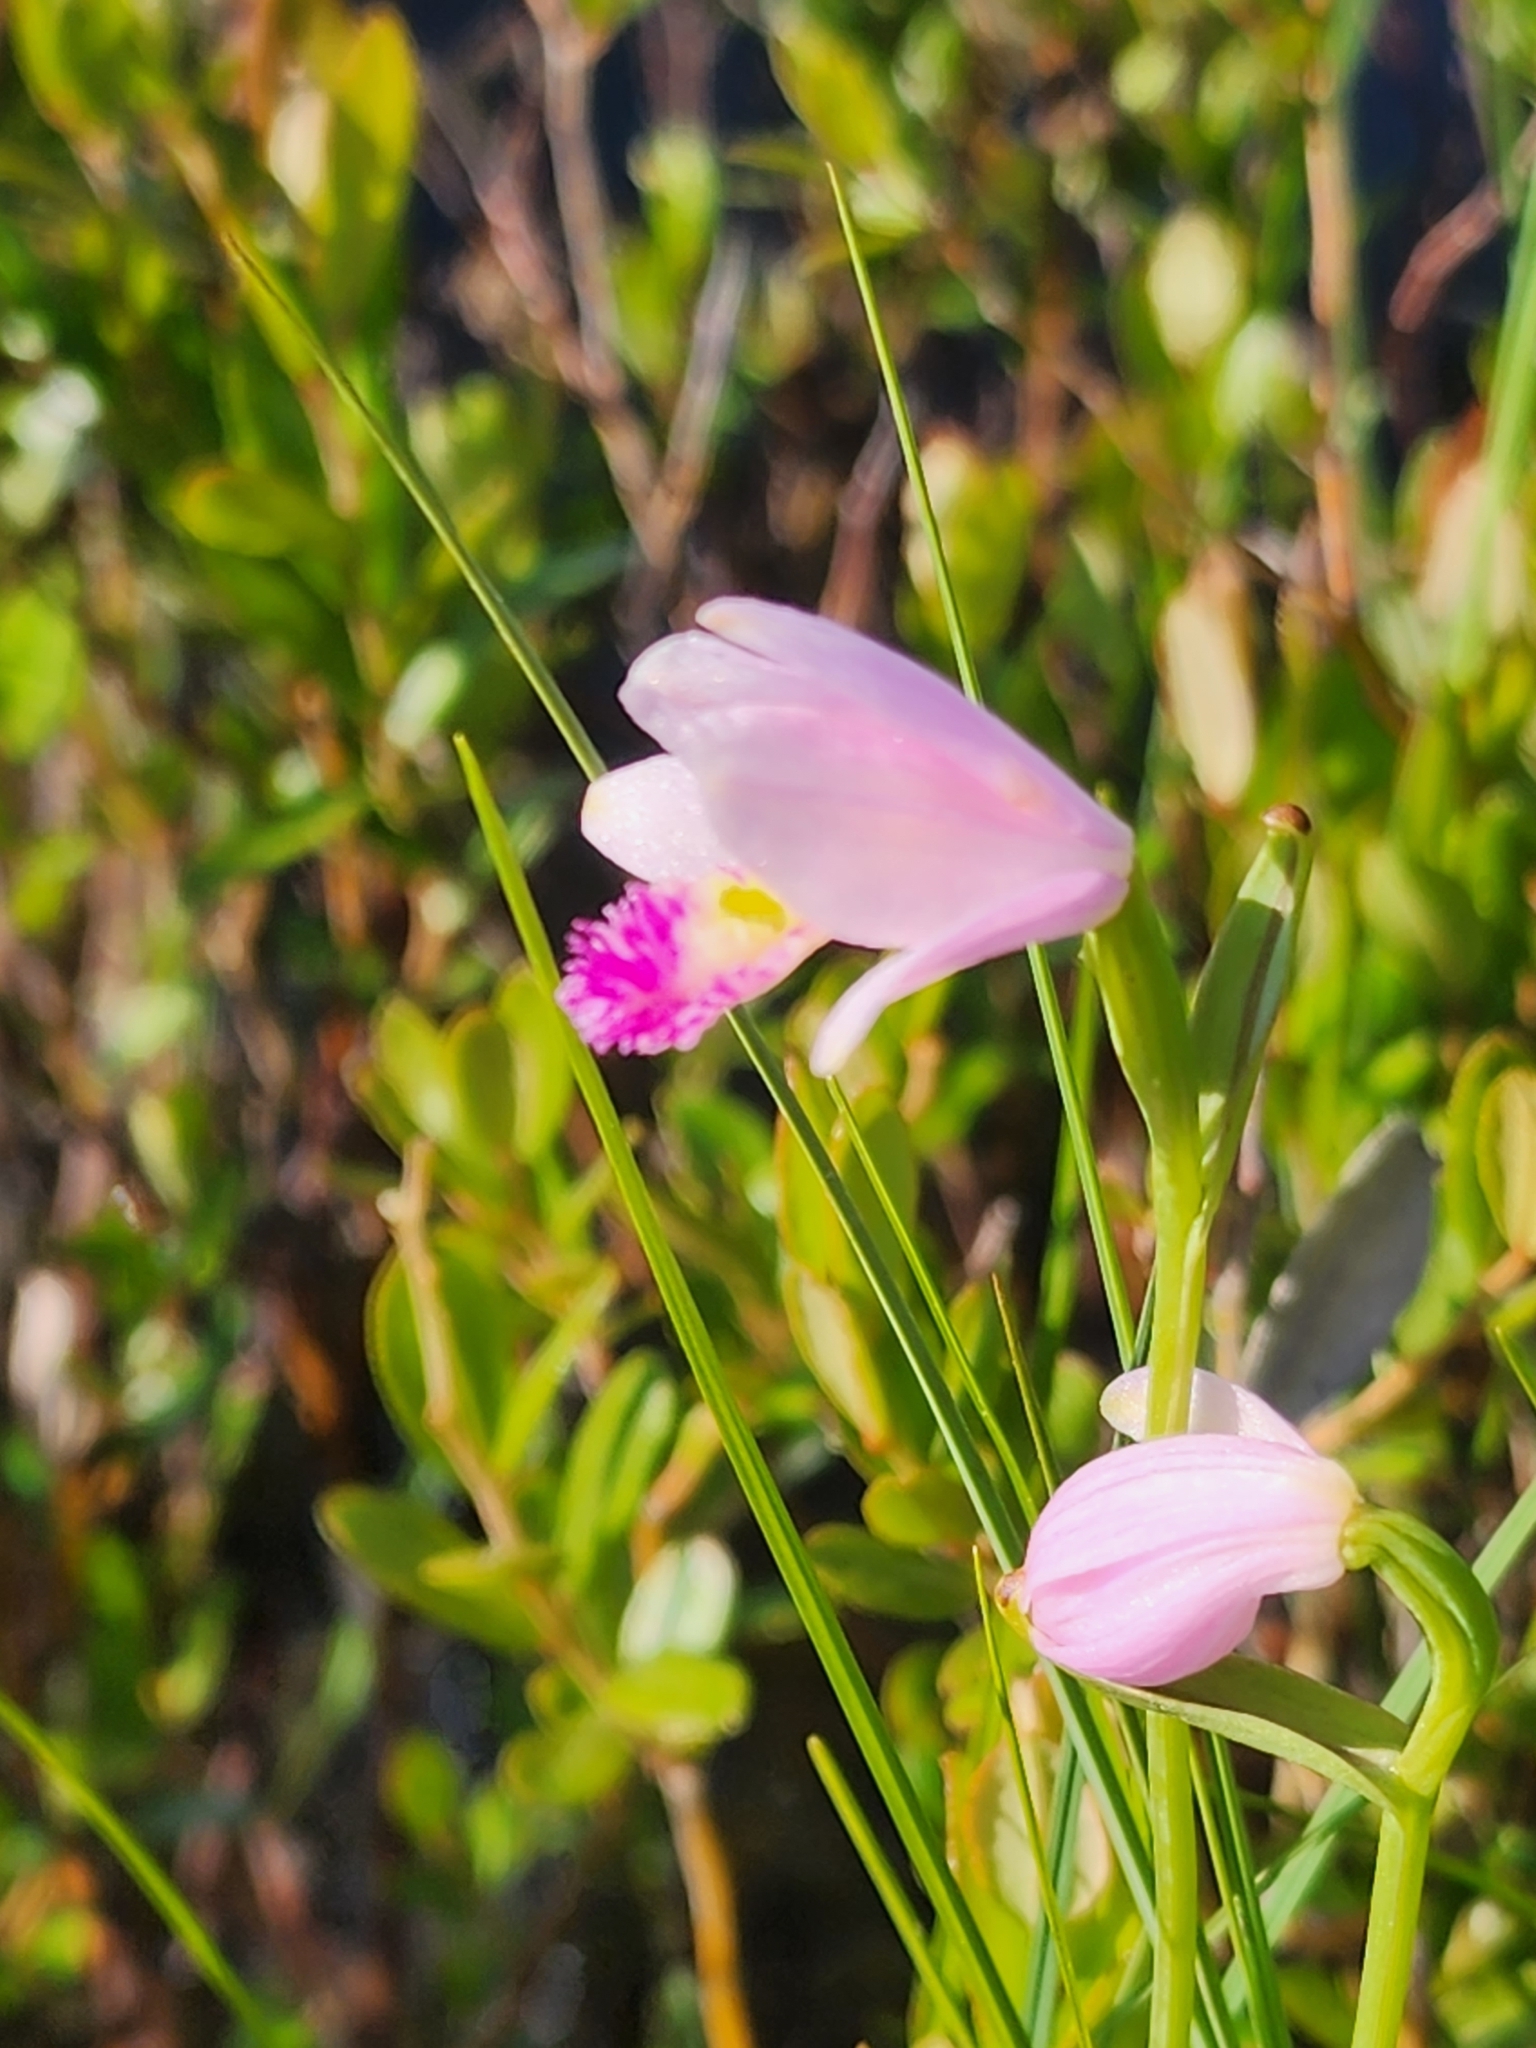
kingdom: Plantae
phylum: Tracheophyta
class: Liliopsida
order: Asparagales
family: Orchidaceae
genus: Pogonia
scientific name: Pogonia ophioglossoides
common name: Rose pogonia
